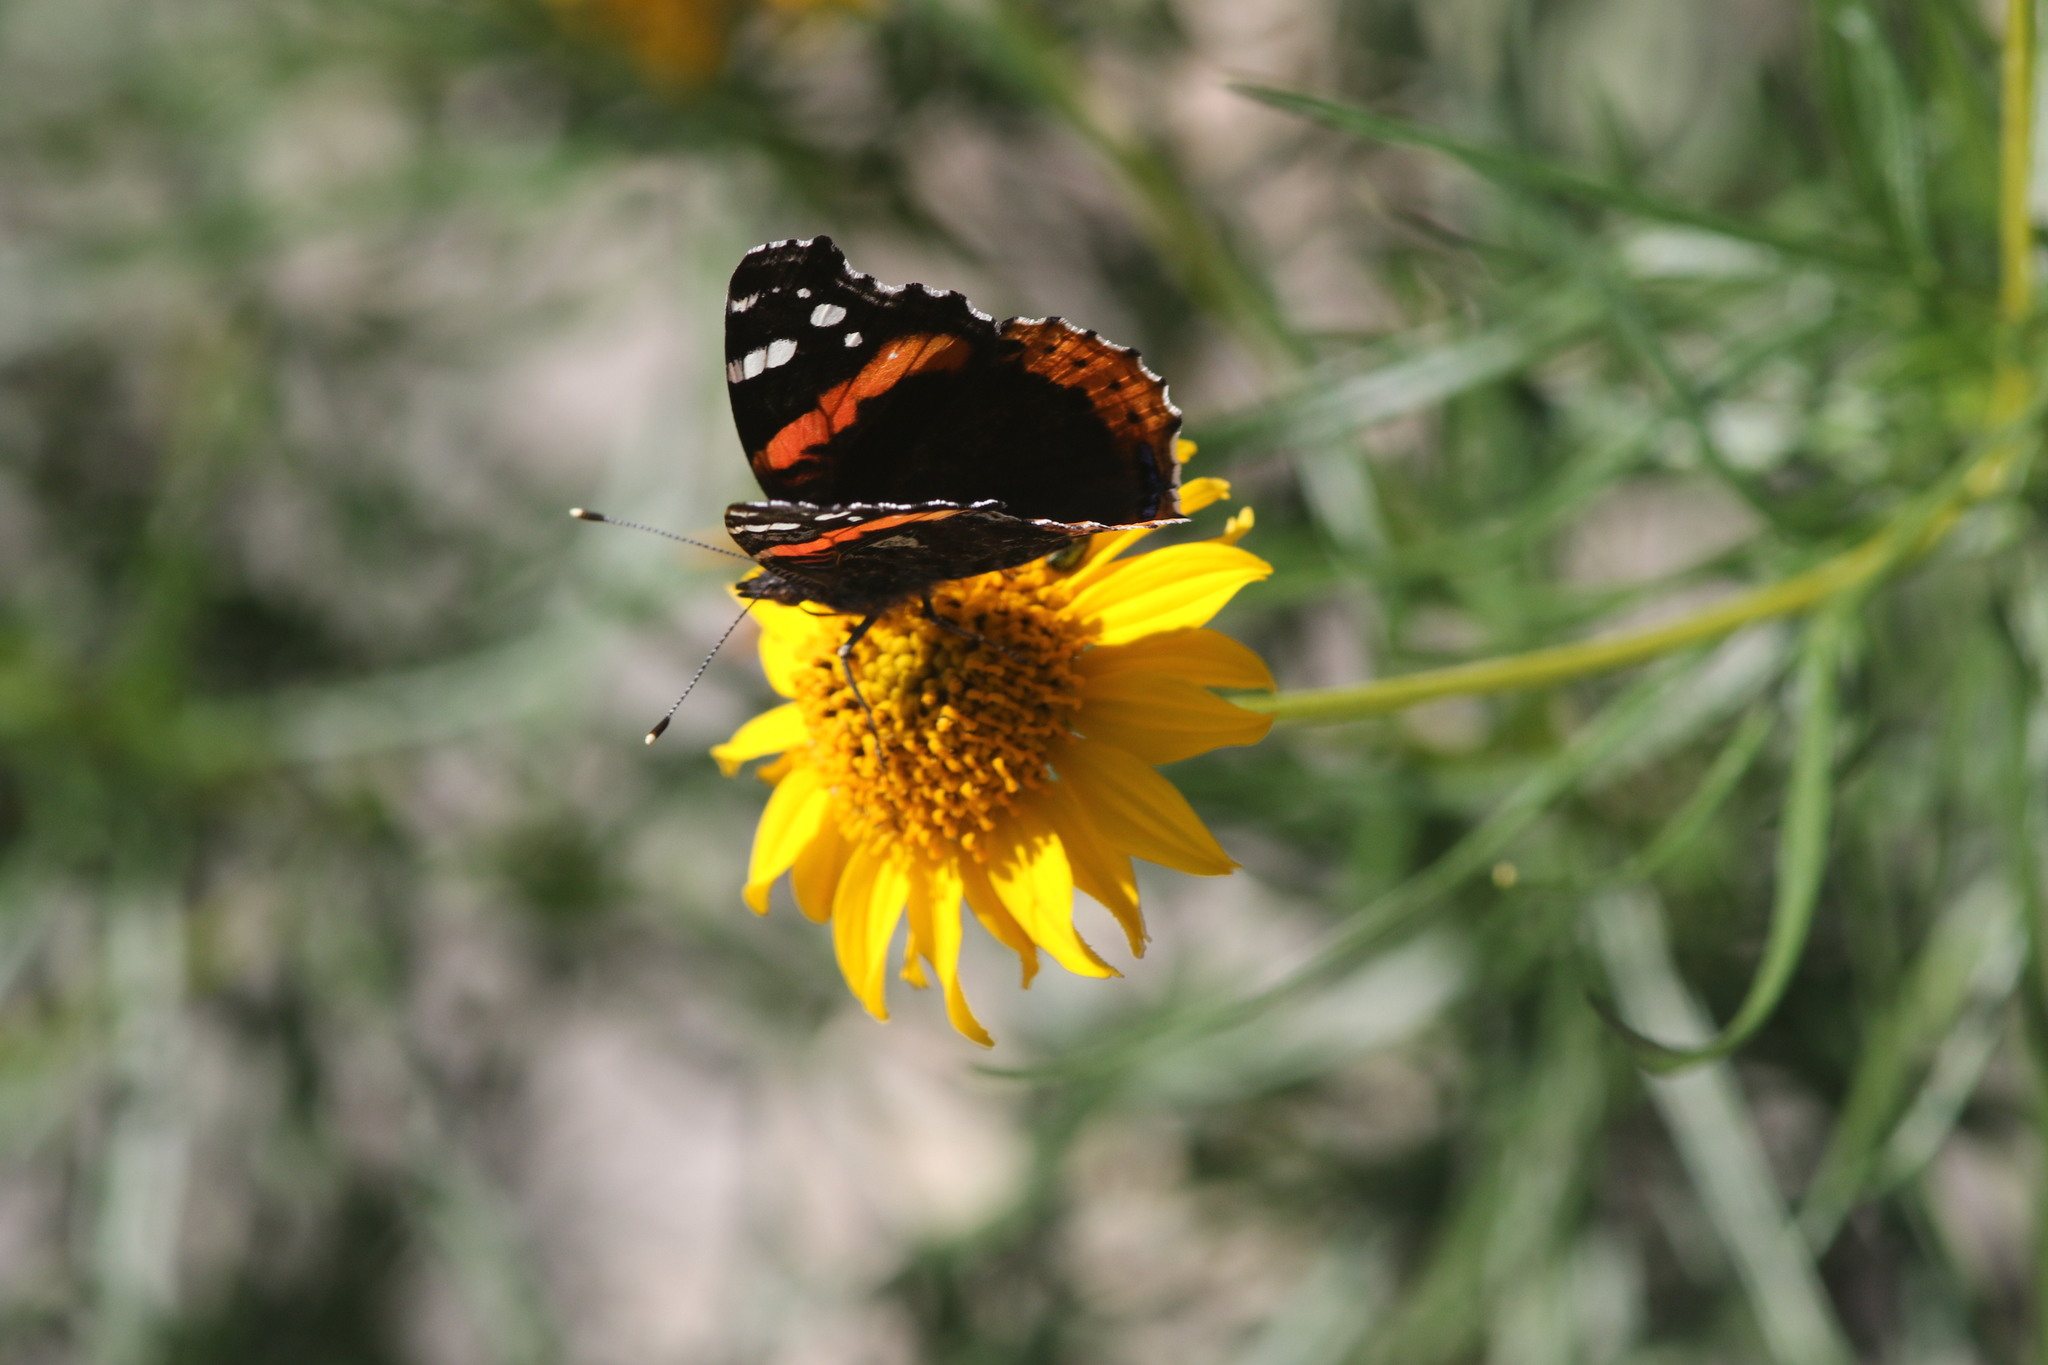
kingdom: Animalia
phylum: Arthropoda
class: Insecta
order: Lepidoptera
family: Nymphalidae
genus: Vanessa
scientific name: Vanessa atalanta
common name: Red admiral
